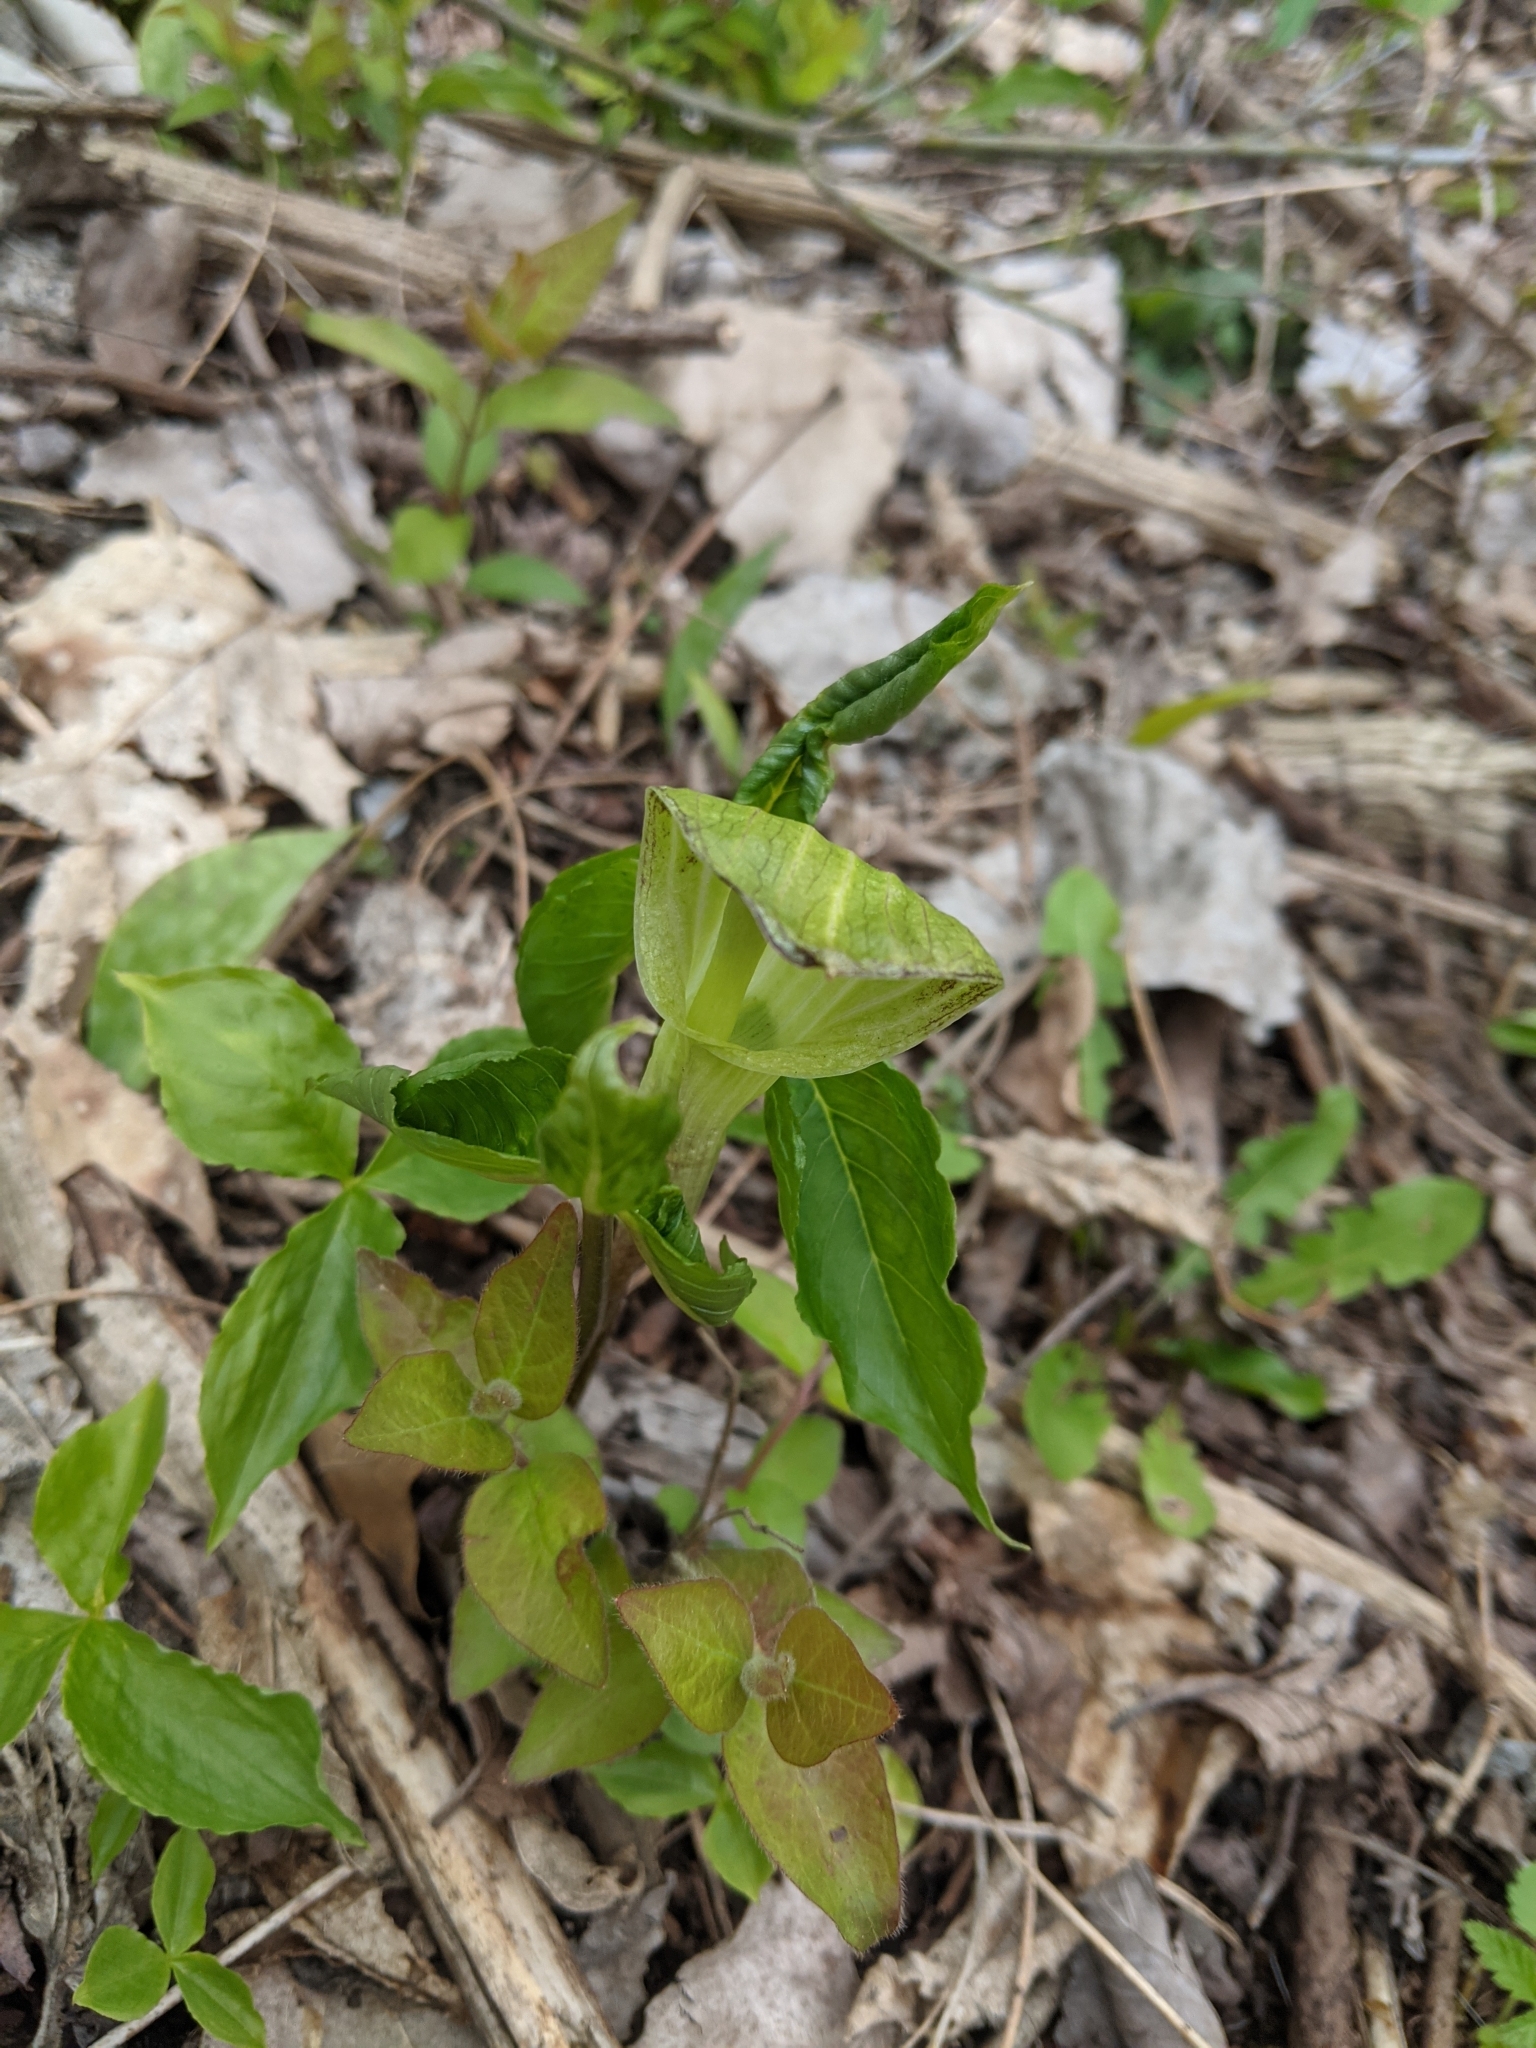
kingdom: Plantae
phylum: Tracheophyta
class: Liliopsida
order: Alismatales
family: Araceae
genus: Arisaema
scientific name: Arisaema triphyllum
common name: Jack-in-the-pulpit
